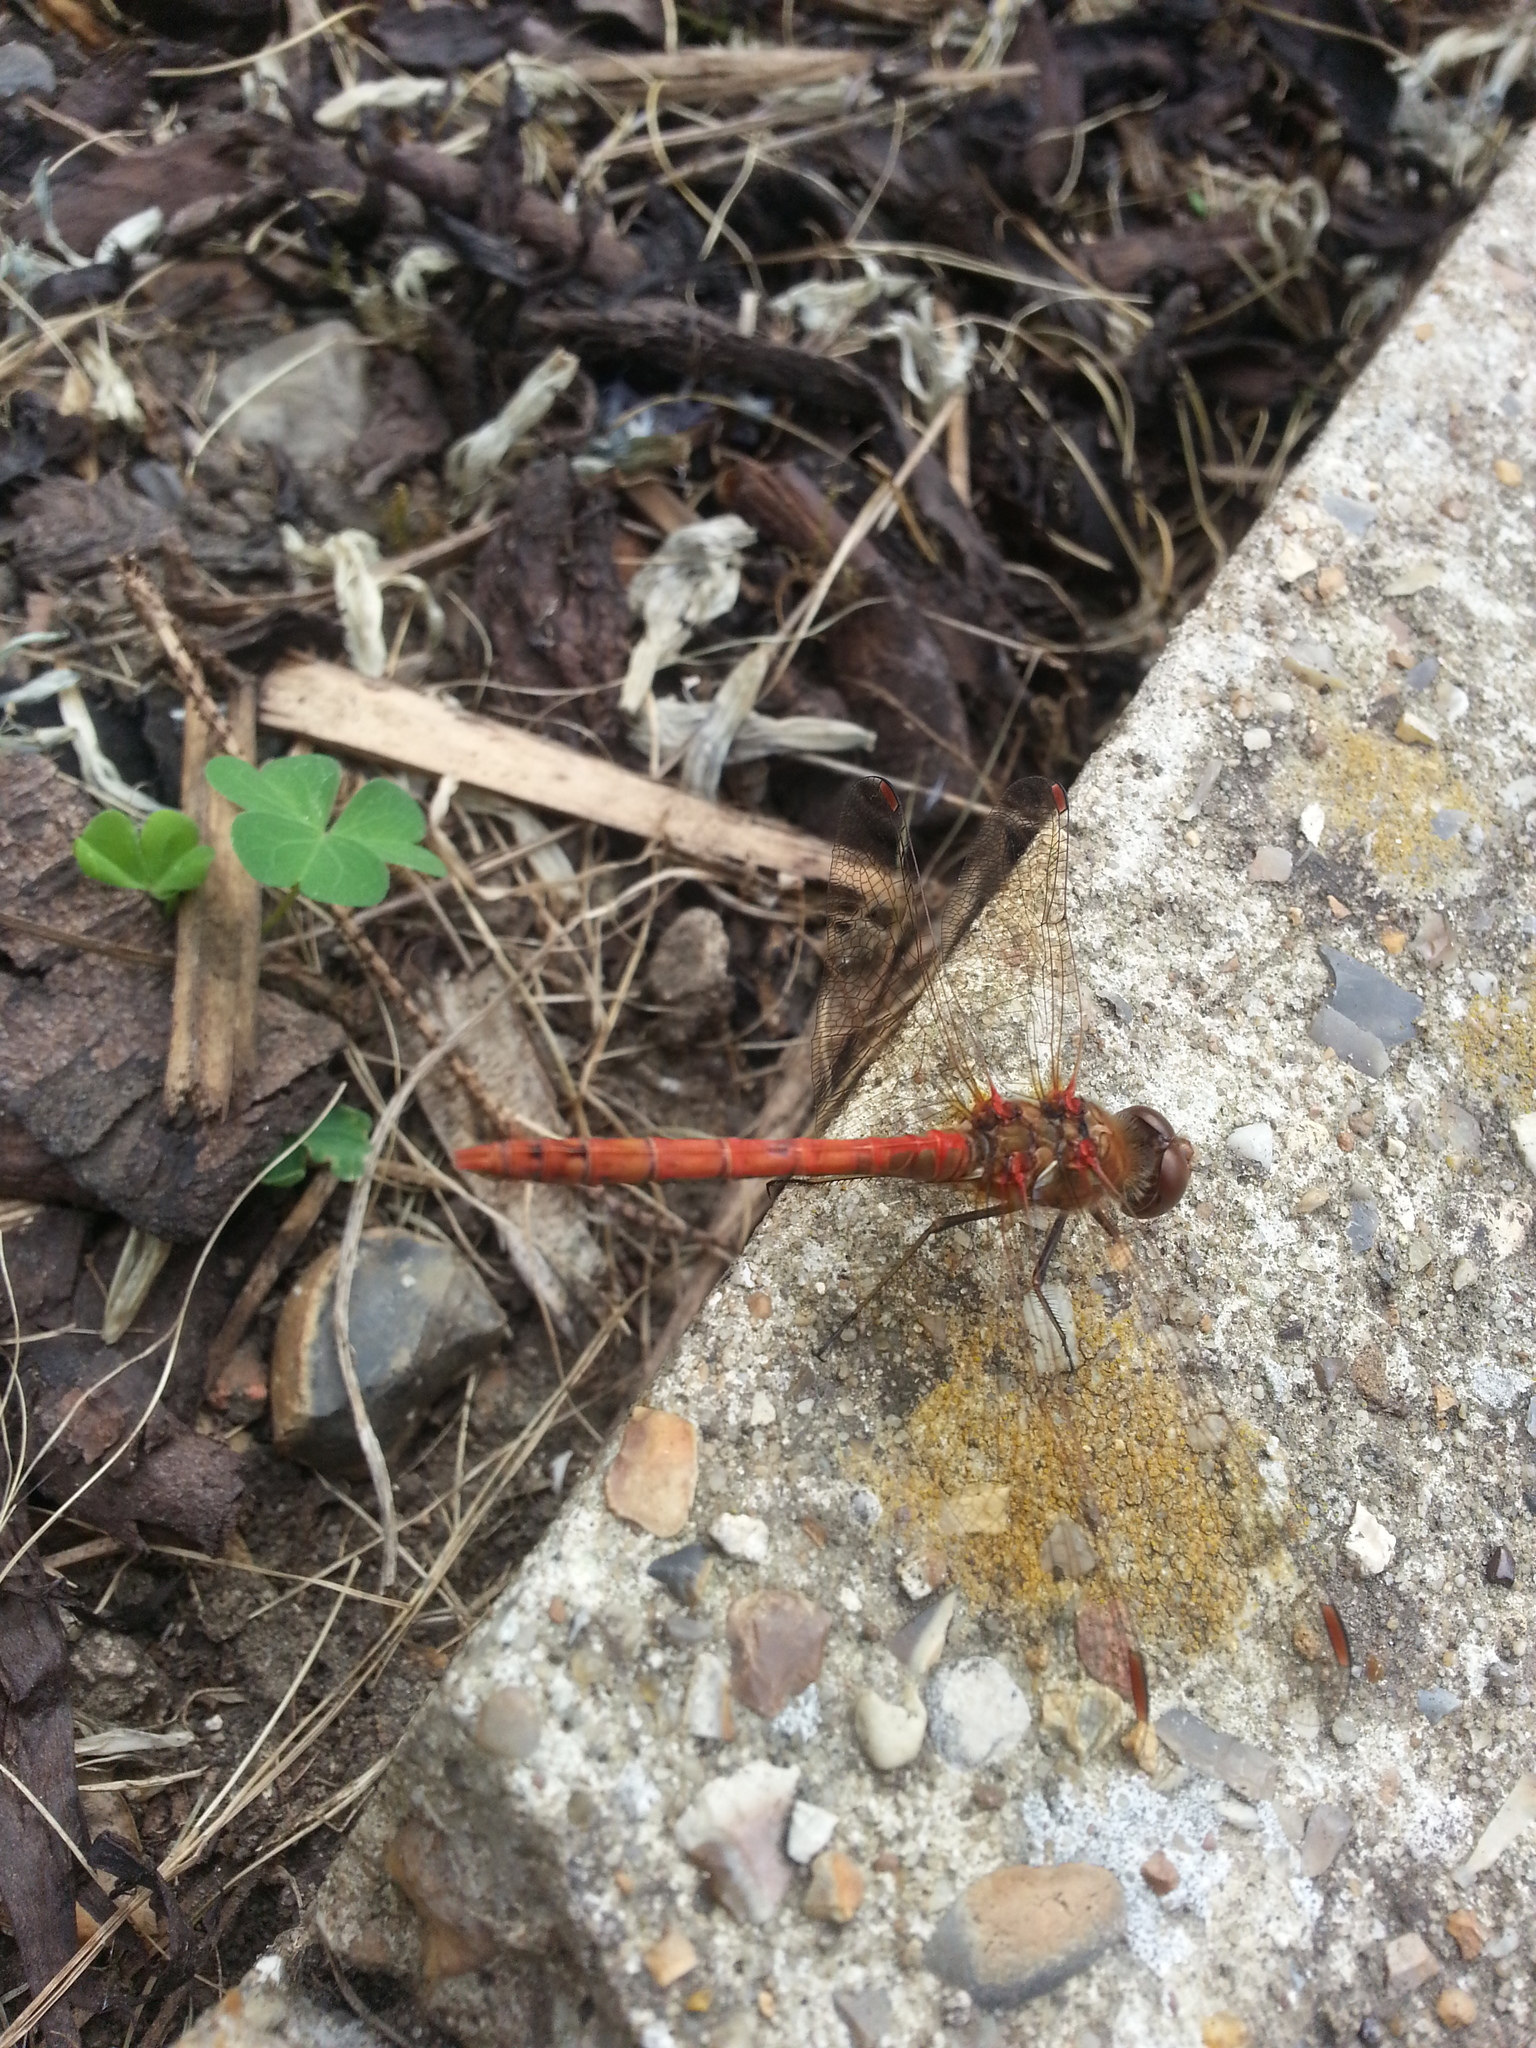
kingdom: Animalia
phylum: Arthropoda
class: Insecta
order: Odonata
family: Libellulidae
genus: Sympetrum
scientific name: Sympetrum striolatum
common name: Common darter
